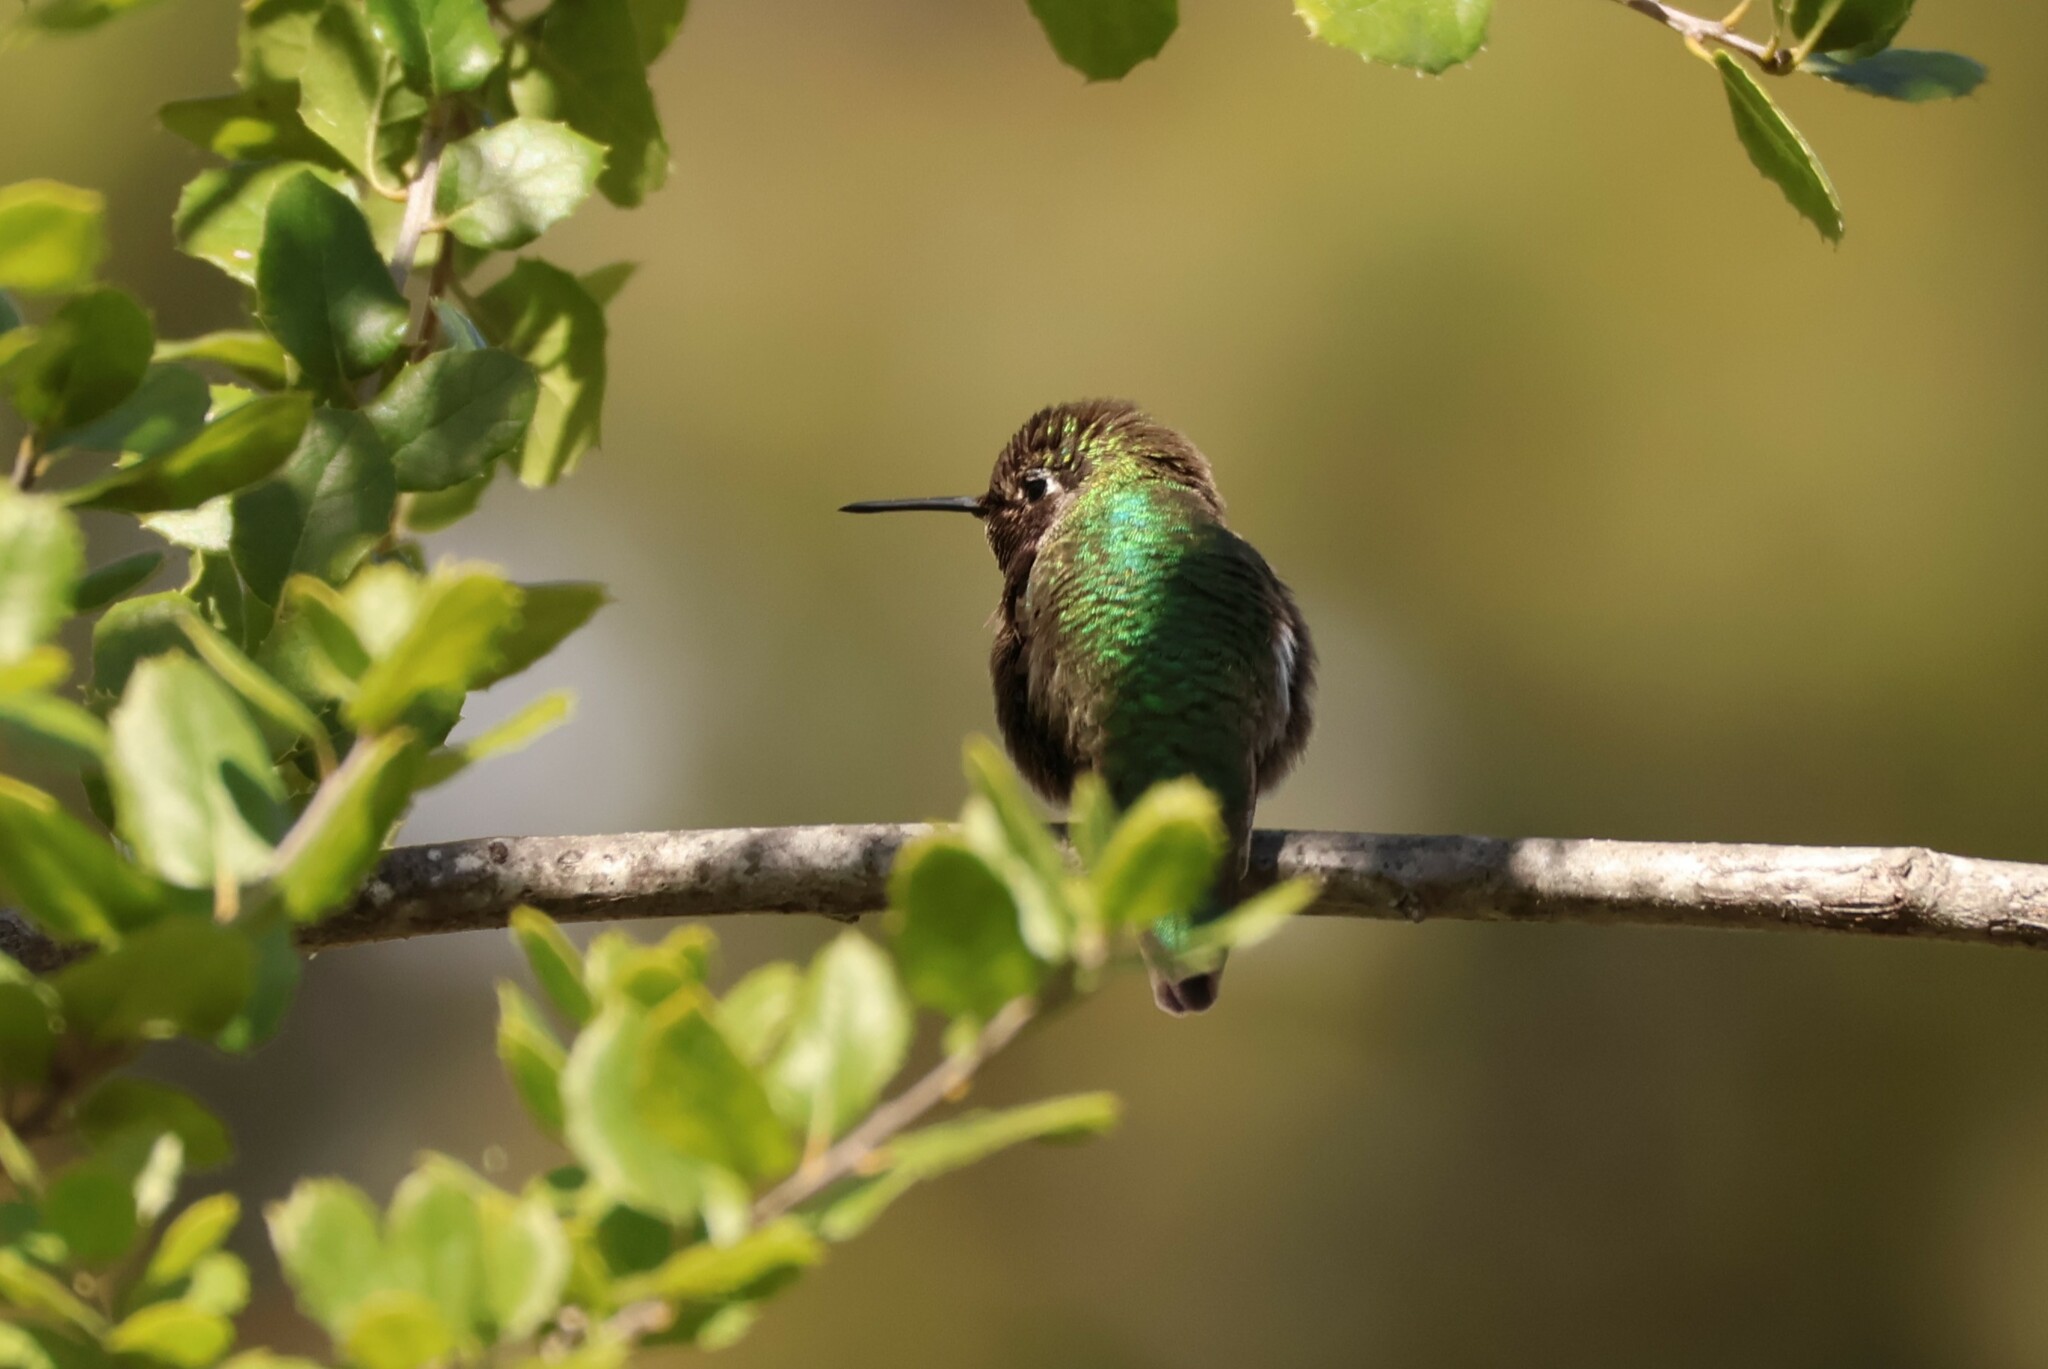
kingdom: Animalia
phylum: Chordata
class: Aves
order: Apodiformes
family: Trochilidae
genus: Calypte
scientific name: Calypte anna
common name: Anna's hummingbird
